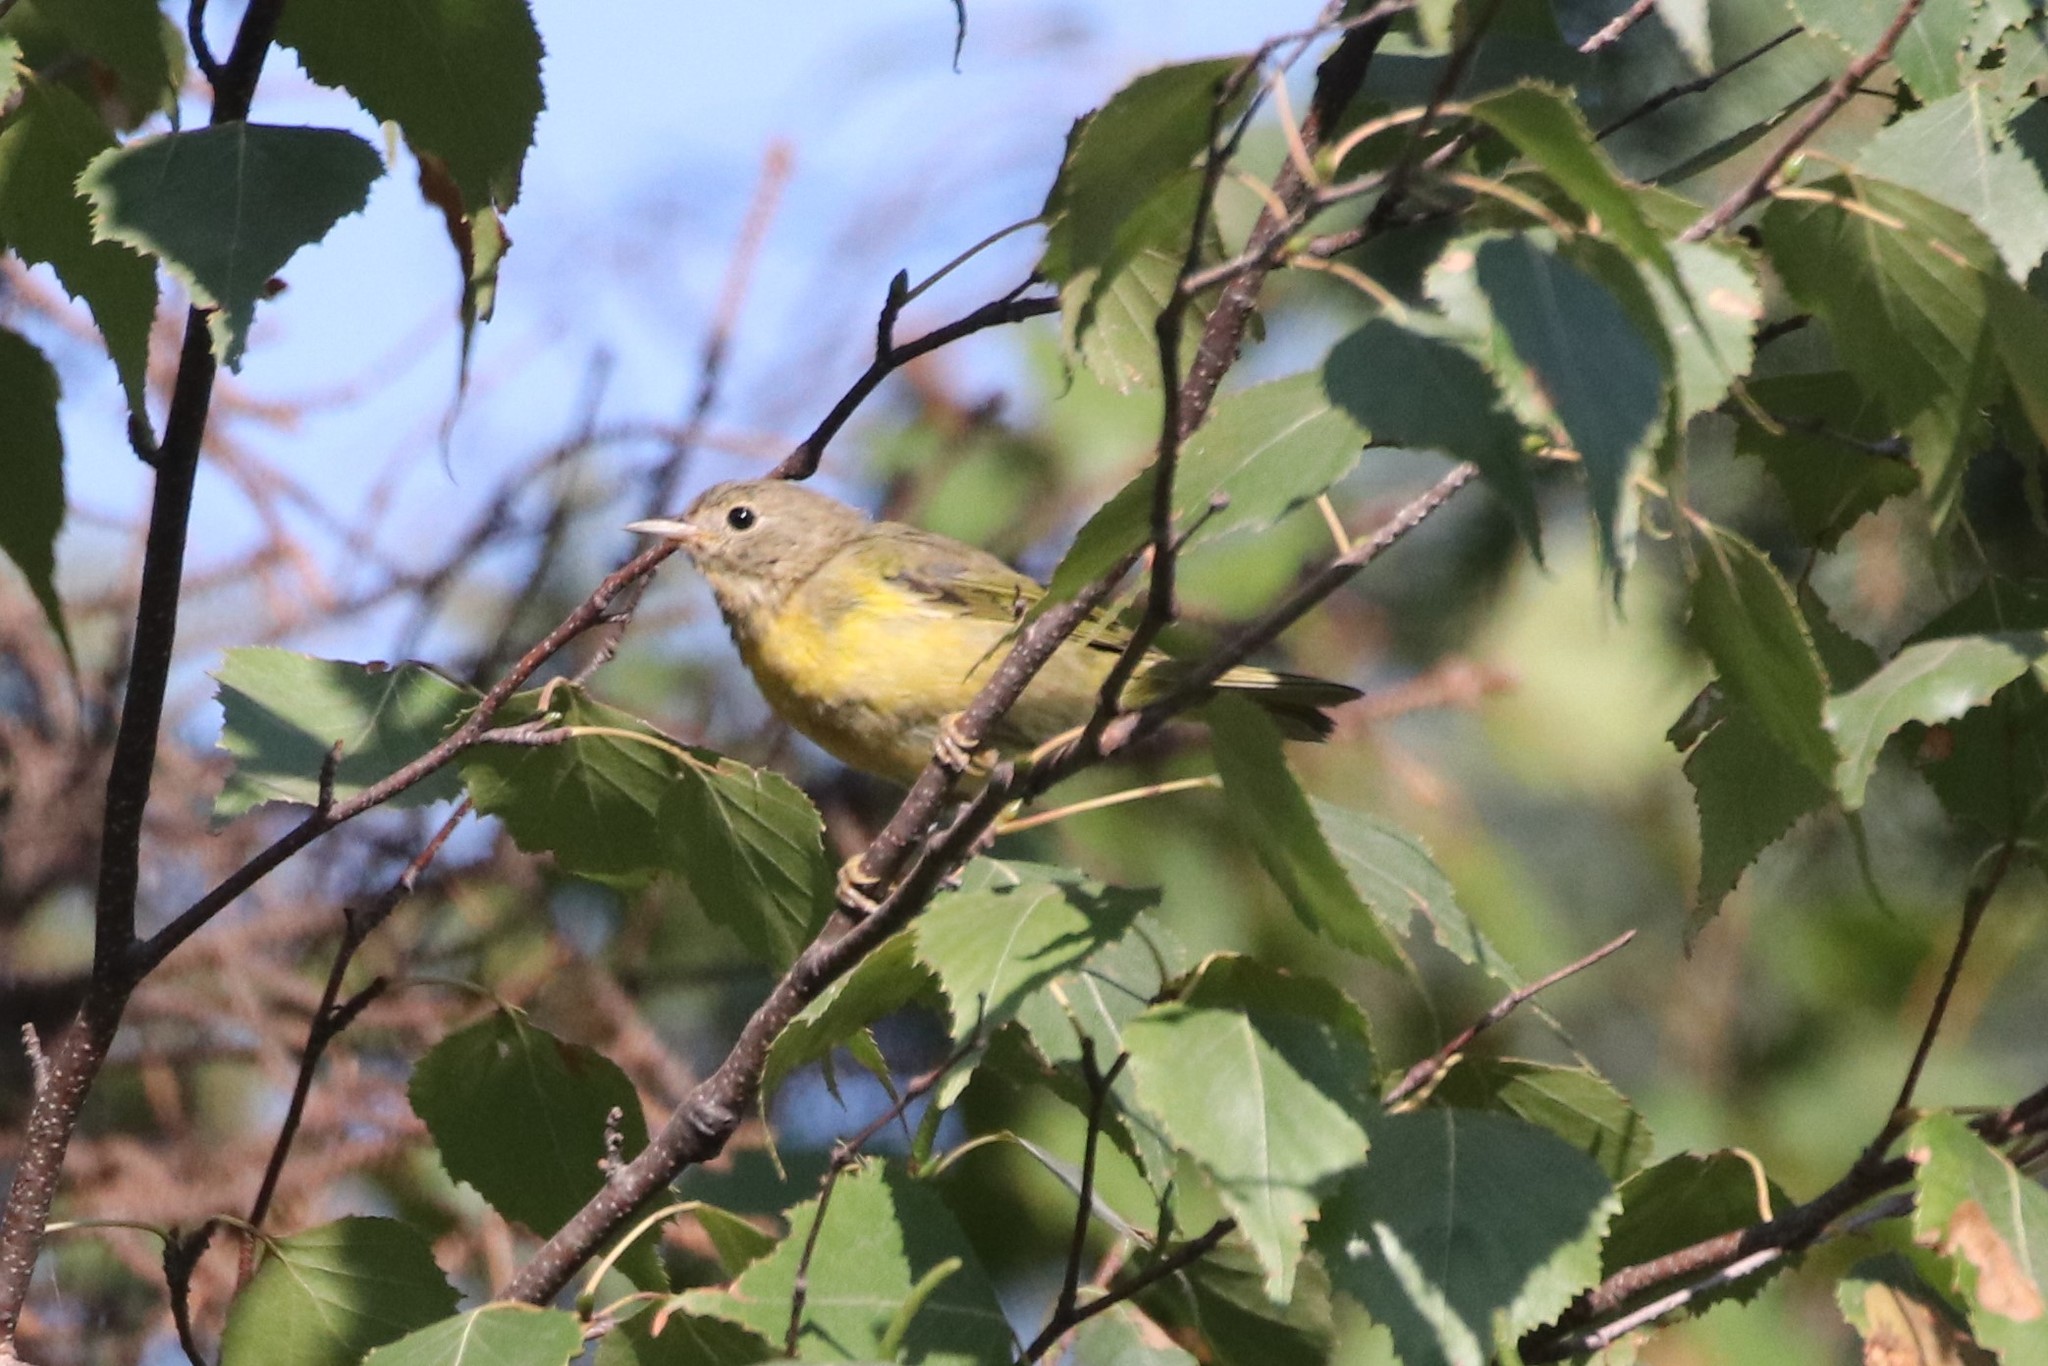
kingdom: Animalia
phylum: Chordata
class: Aves
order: Passeriformes
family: Parulidae
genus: Leiothlypis
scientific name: Leiothlypis ruficapilla
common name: Nashville warbler
